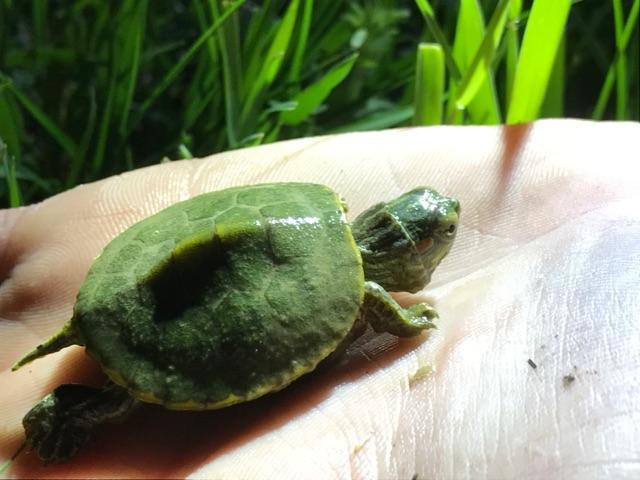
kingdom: Animalia
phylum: Chordata
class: Testudines
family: Emydidae
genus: Trachemys
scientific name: Trachemys scripta
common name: Slider
